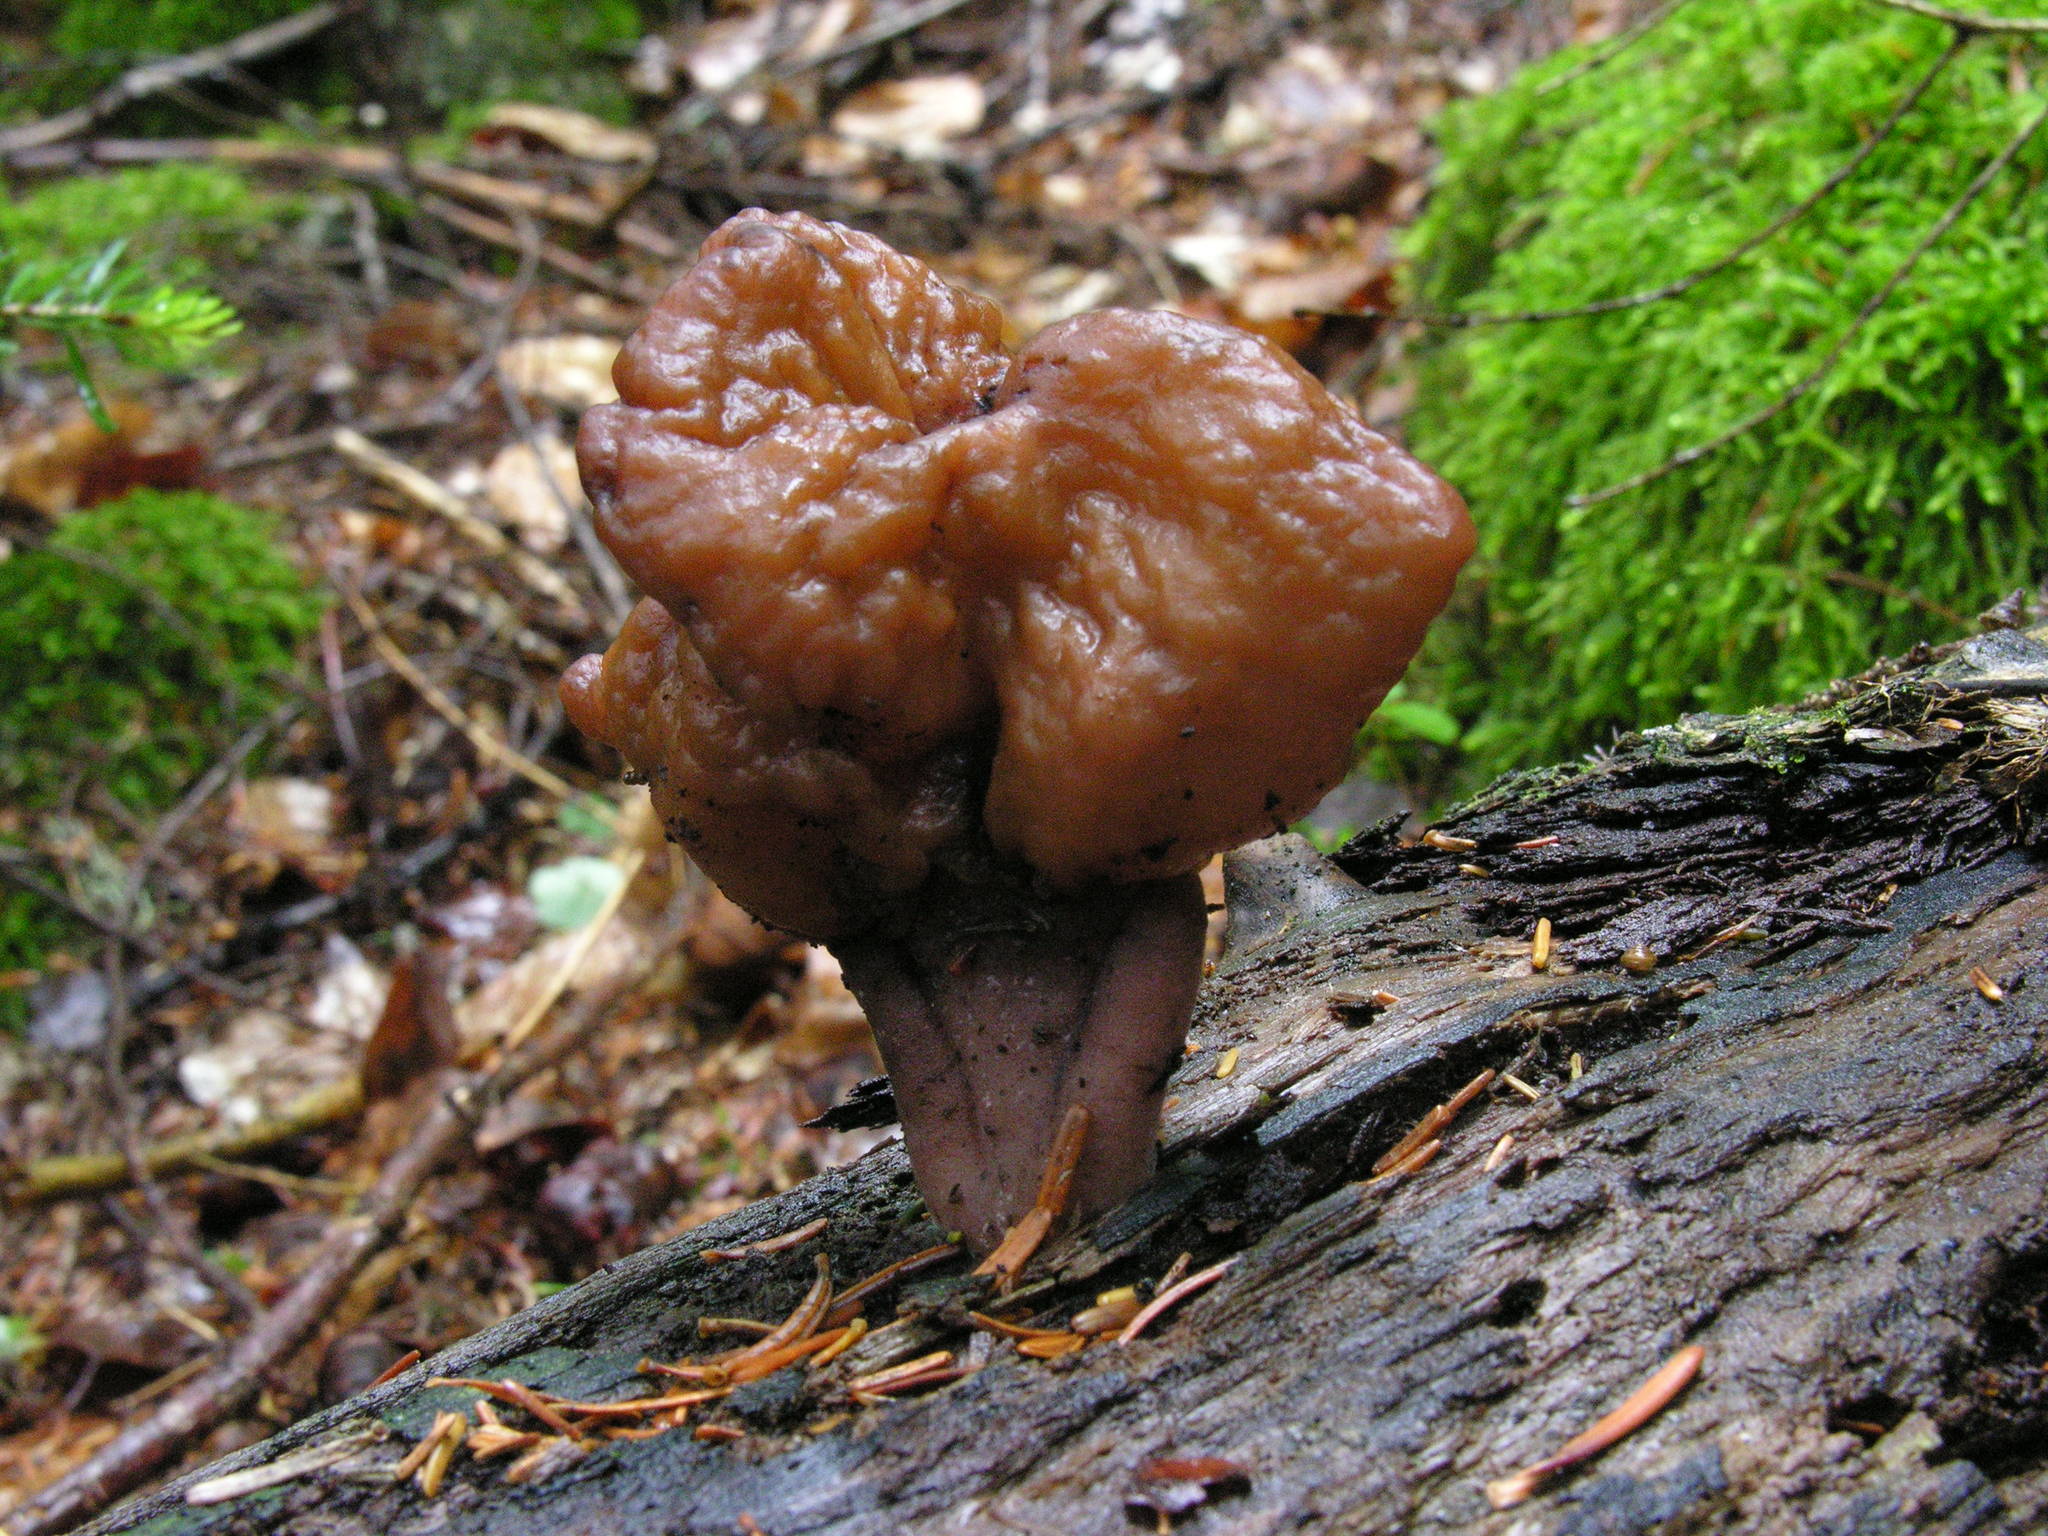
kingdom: Fungi
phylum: Ascomycota
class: Pezizomycetes
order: Pezizales
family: Discinaceae
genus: Gyromitra
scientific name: Gyromitra infula
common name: Pouched false morel
